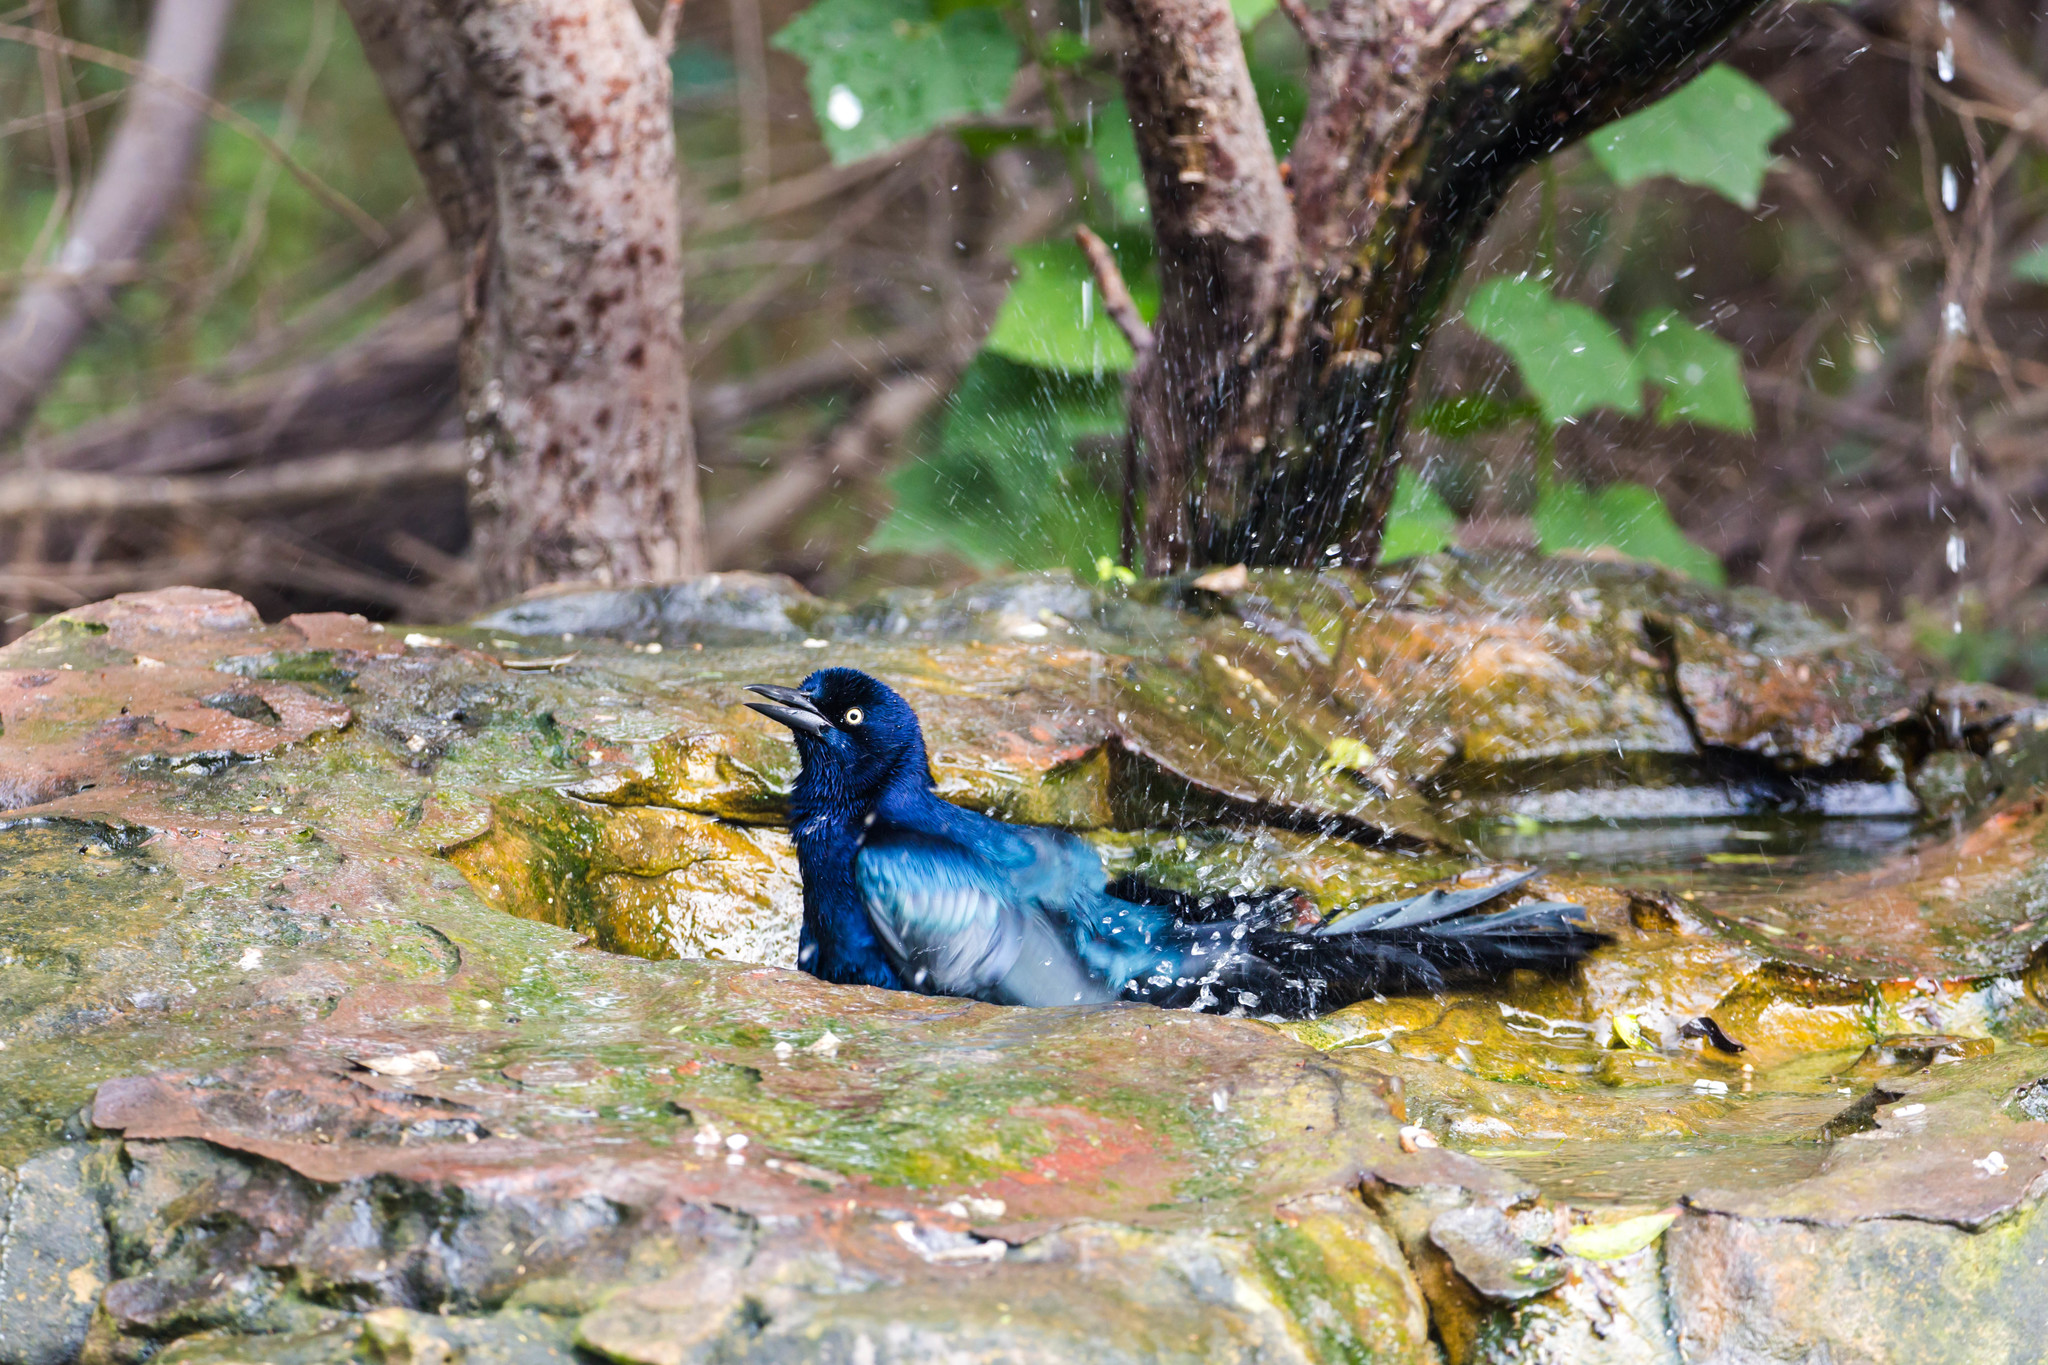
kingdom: Animalia
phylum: Chordata
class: Aves
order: Passeriformes
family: Icteridae
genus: Quiscalus
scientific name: Quiscalus mexicanus
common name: Great-tailed grackle
